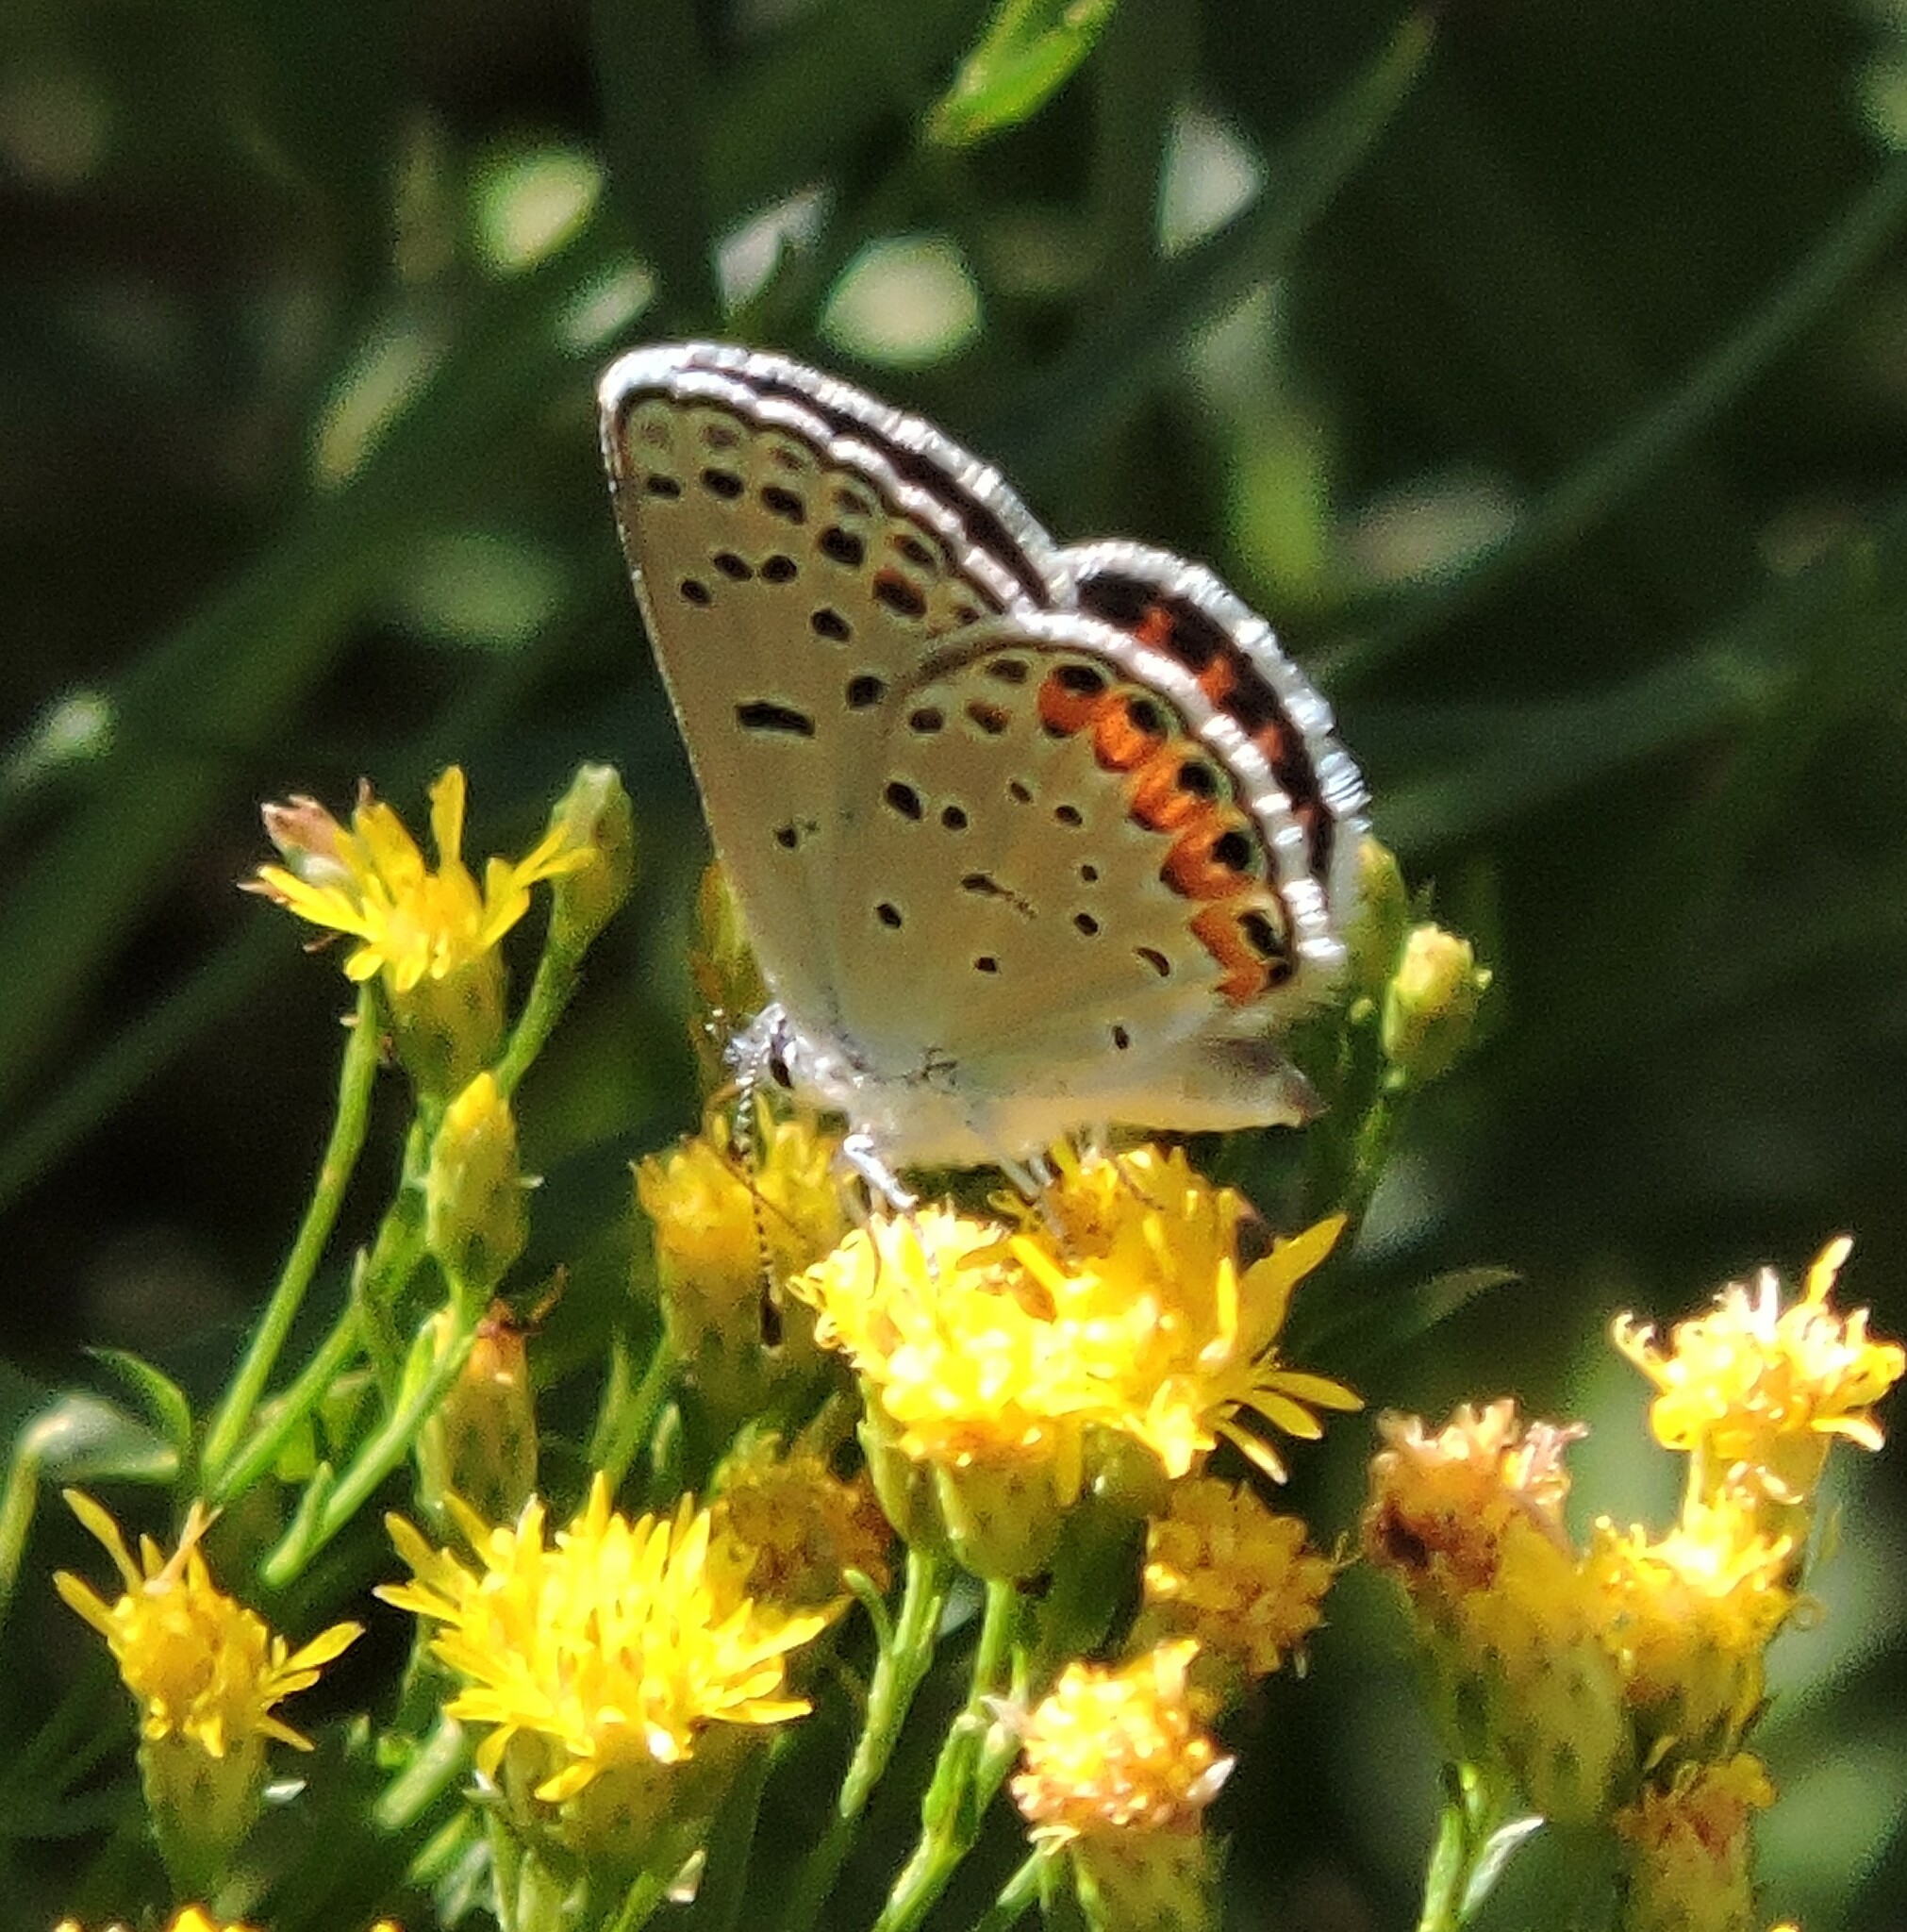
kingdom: Animalia
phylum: Arthropoda
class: Insecta
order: Lepidoptera
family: Lycaenidae
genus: Icaricia
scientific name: Icaricia acmon
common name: Acmon blue
